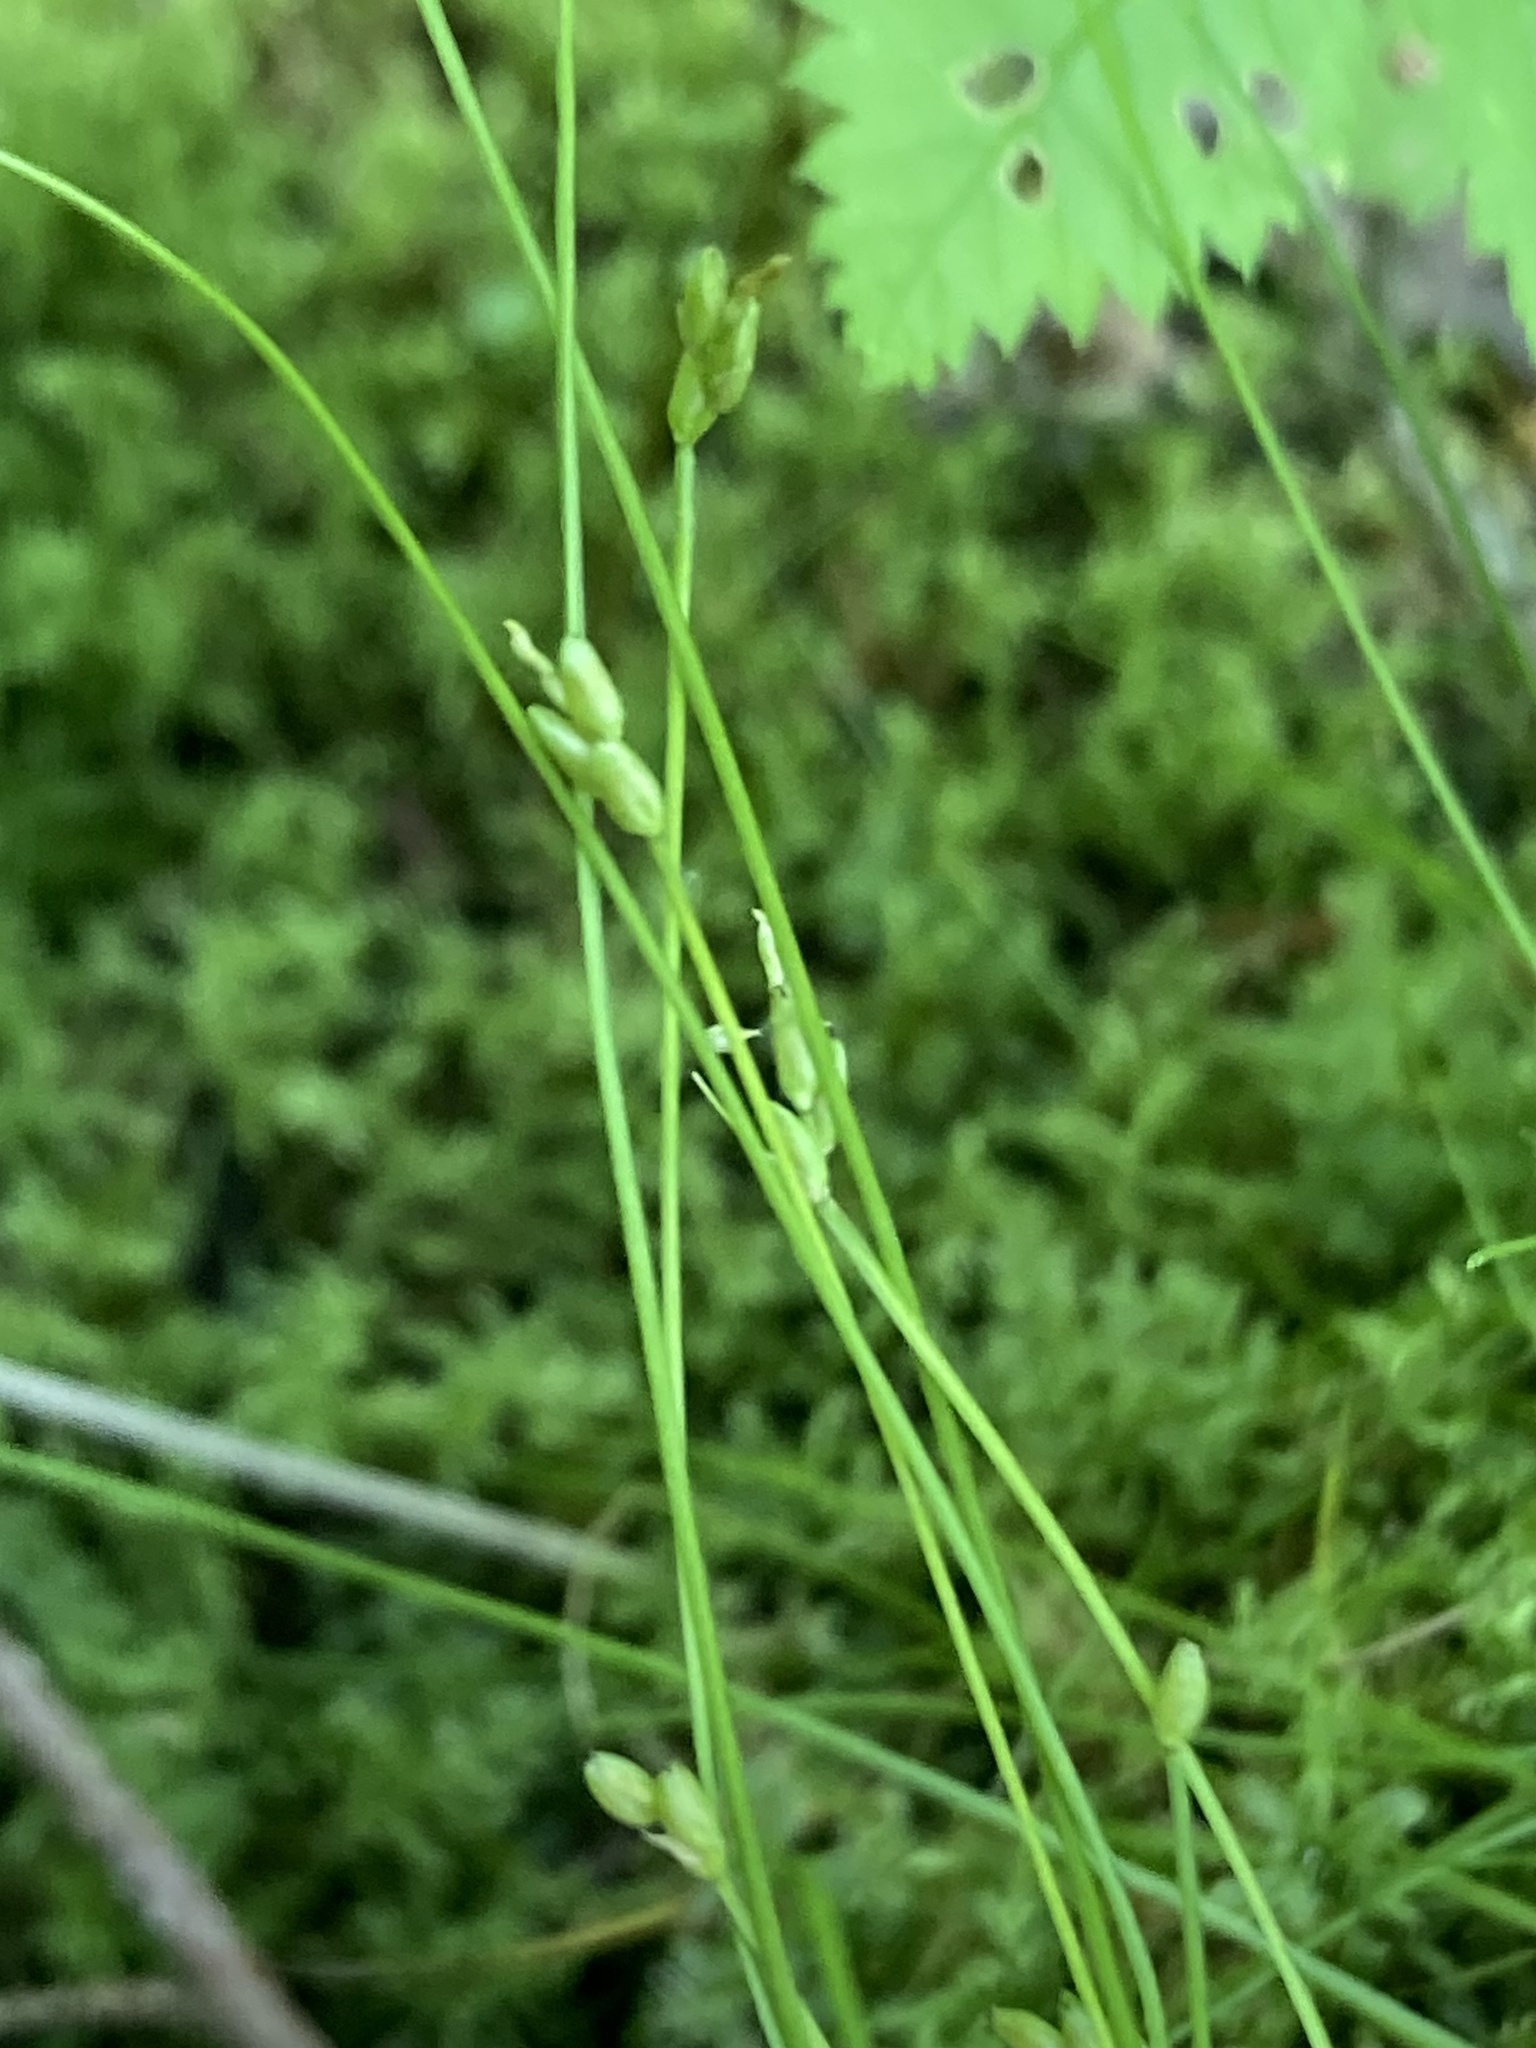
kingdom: Plantae
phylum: Tracheophyta
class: Liliopsida
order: Poales
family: Cyperaceae
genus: Carex
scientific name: Carex leptalea
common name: Bristly-stalked sedge
